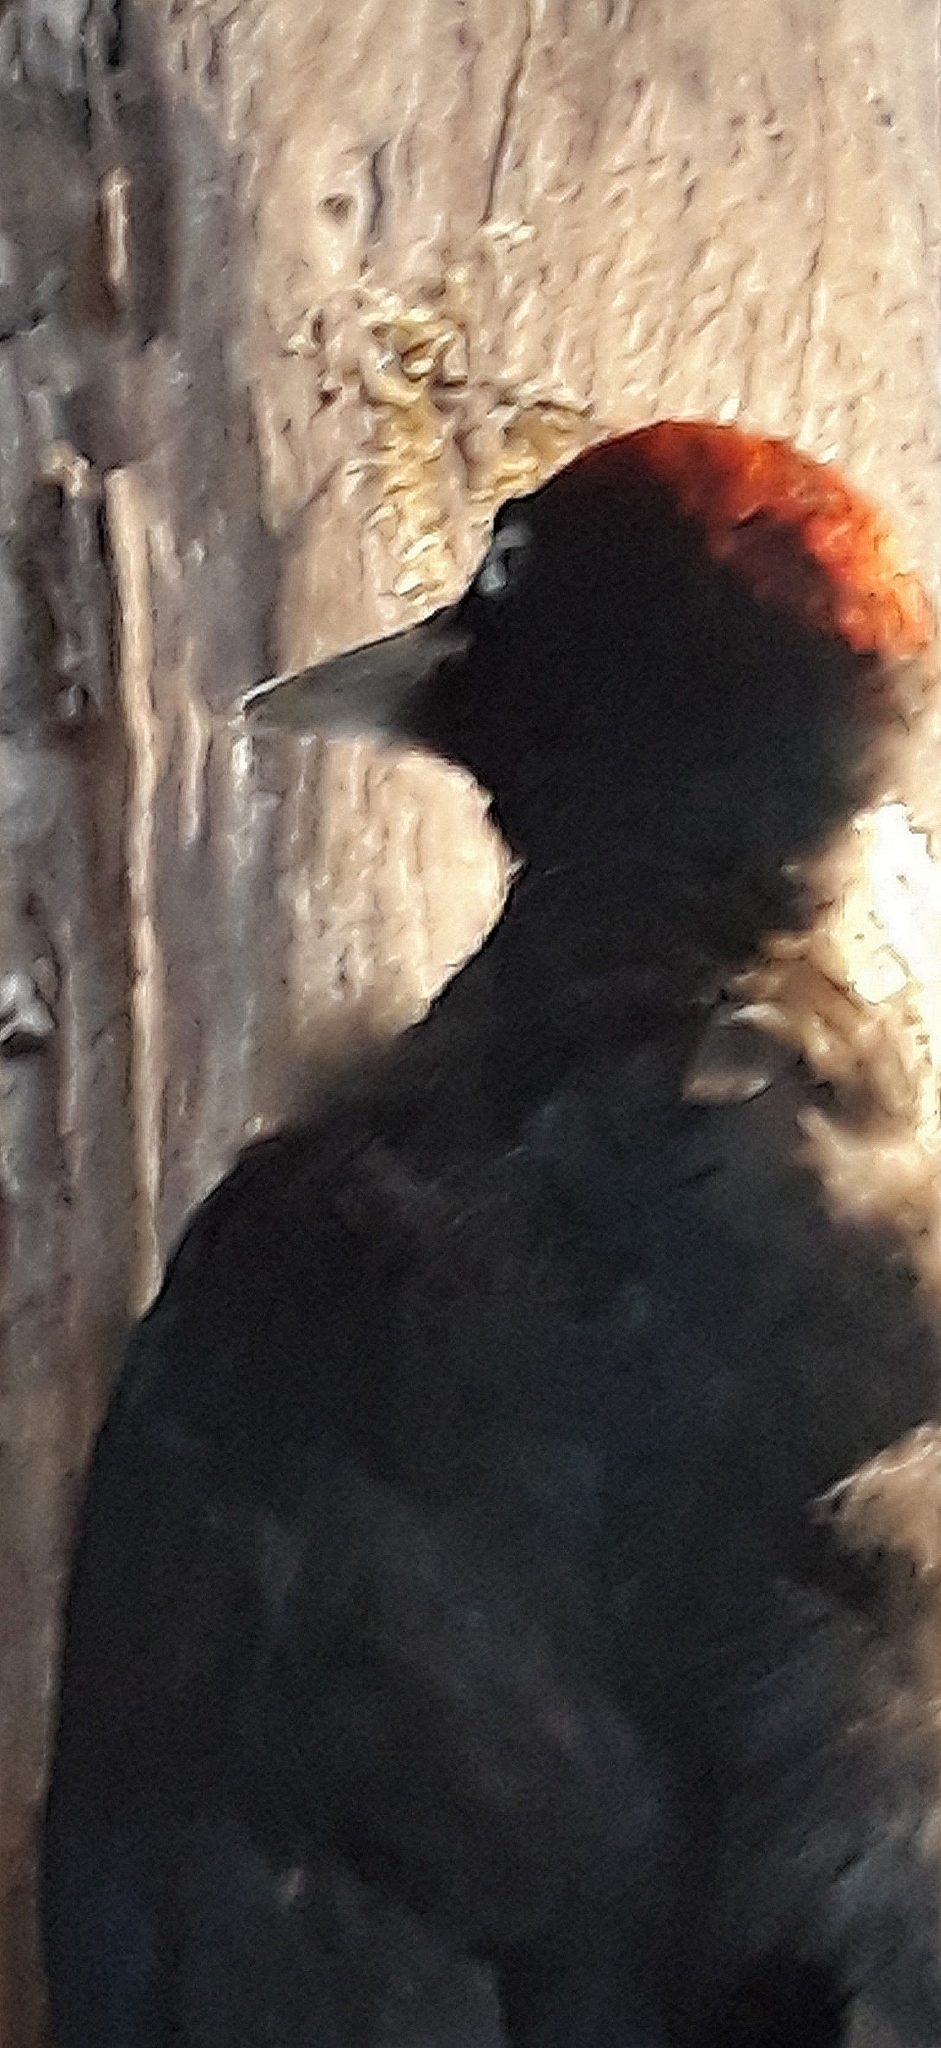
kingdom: Animalia
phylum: Chordata
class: Aves
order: Piciformes
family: Picidae
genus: Dryocopus
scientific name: Dryocopus martius
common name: Black woodpecker
